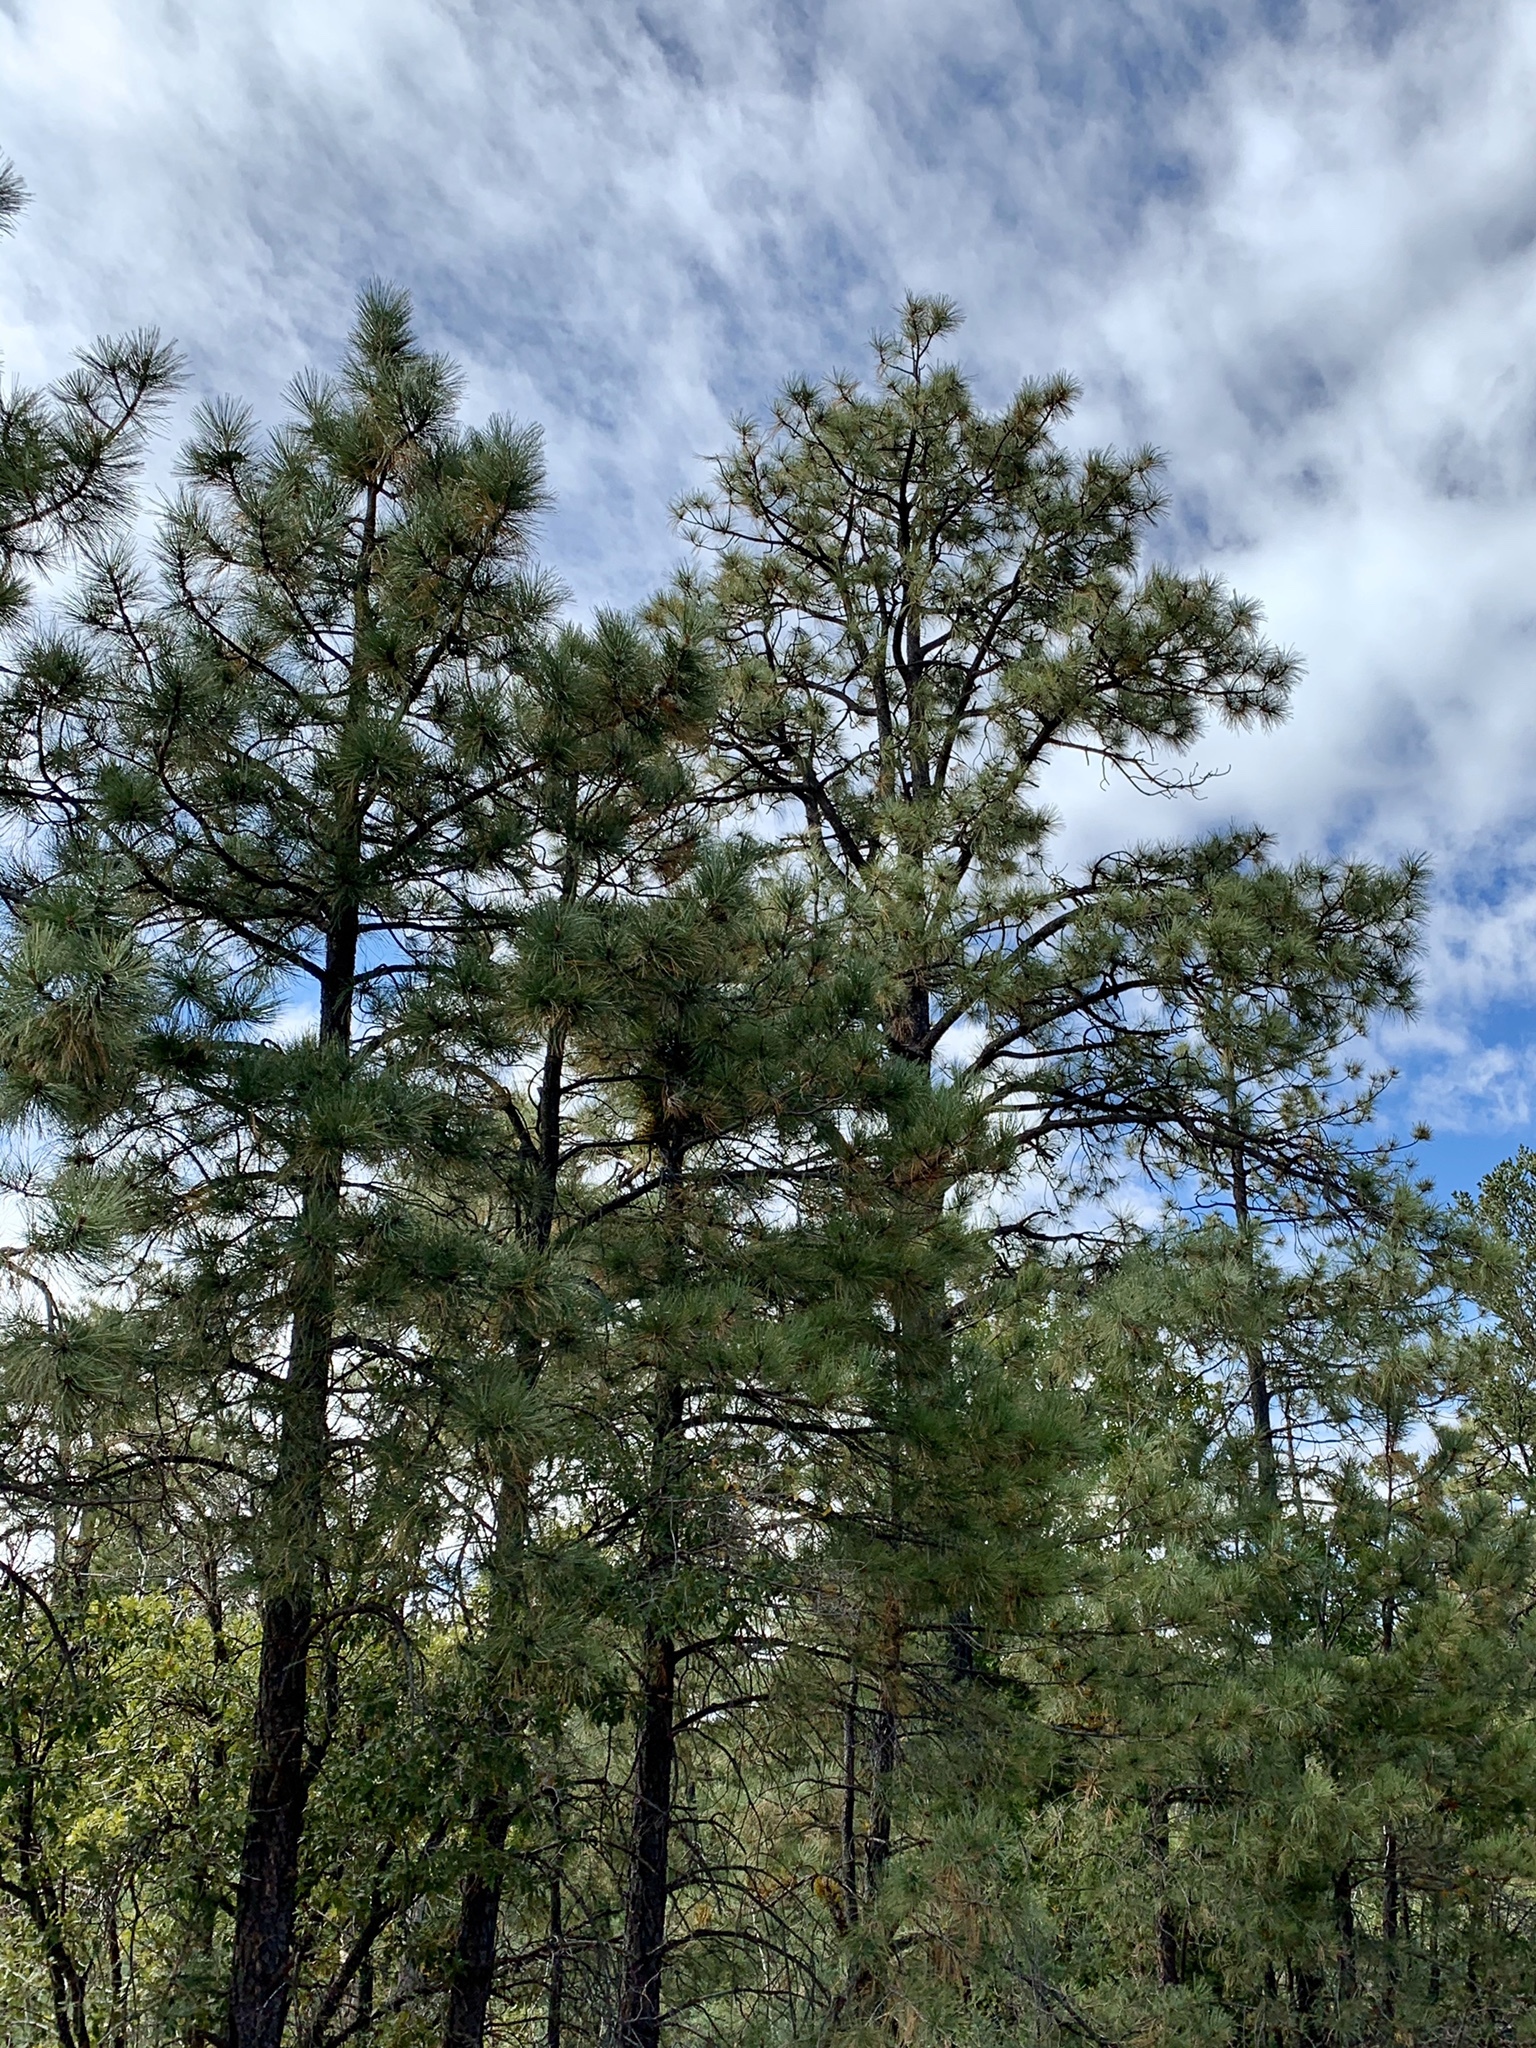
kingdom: Plantae
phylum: Tracheophyta
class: Pinopsida
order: Pinales
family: Pinaceae
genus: Pinus
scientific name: Pinus ponderosa
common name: Western yellow-pine
